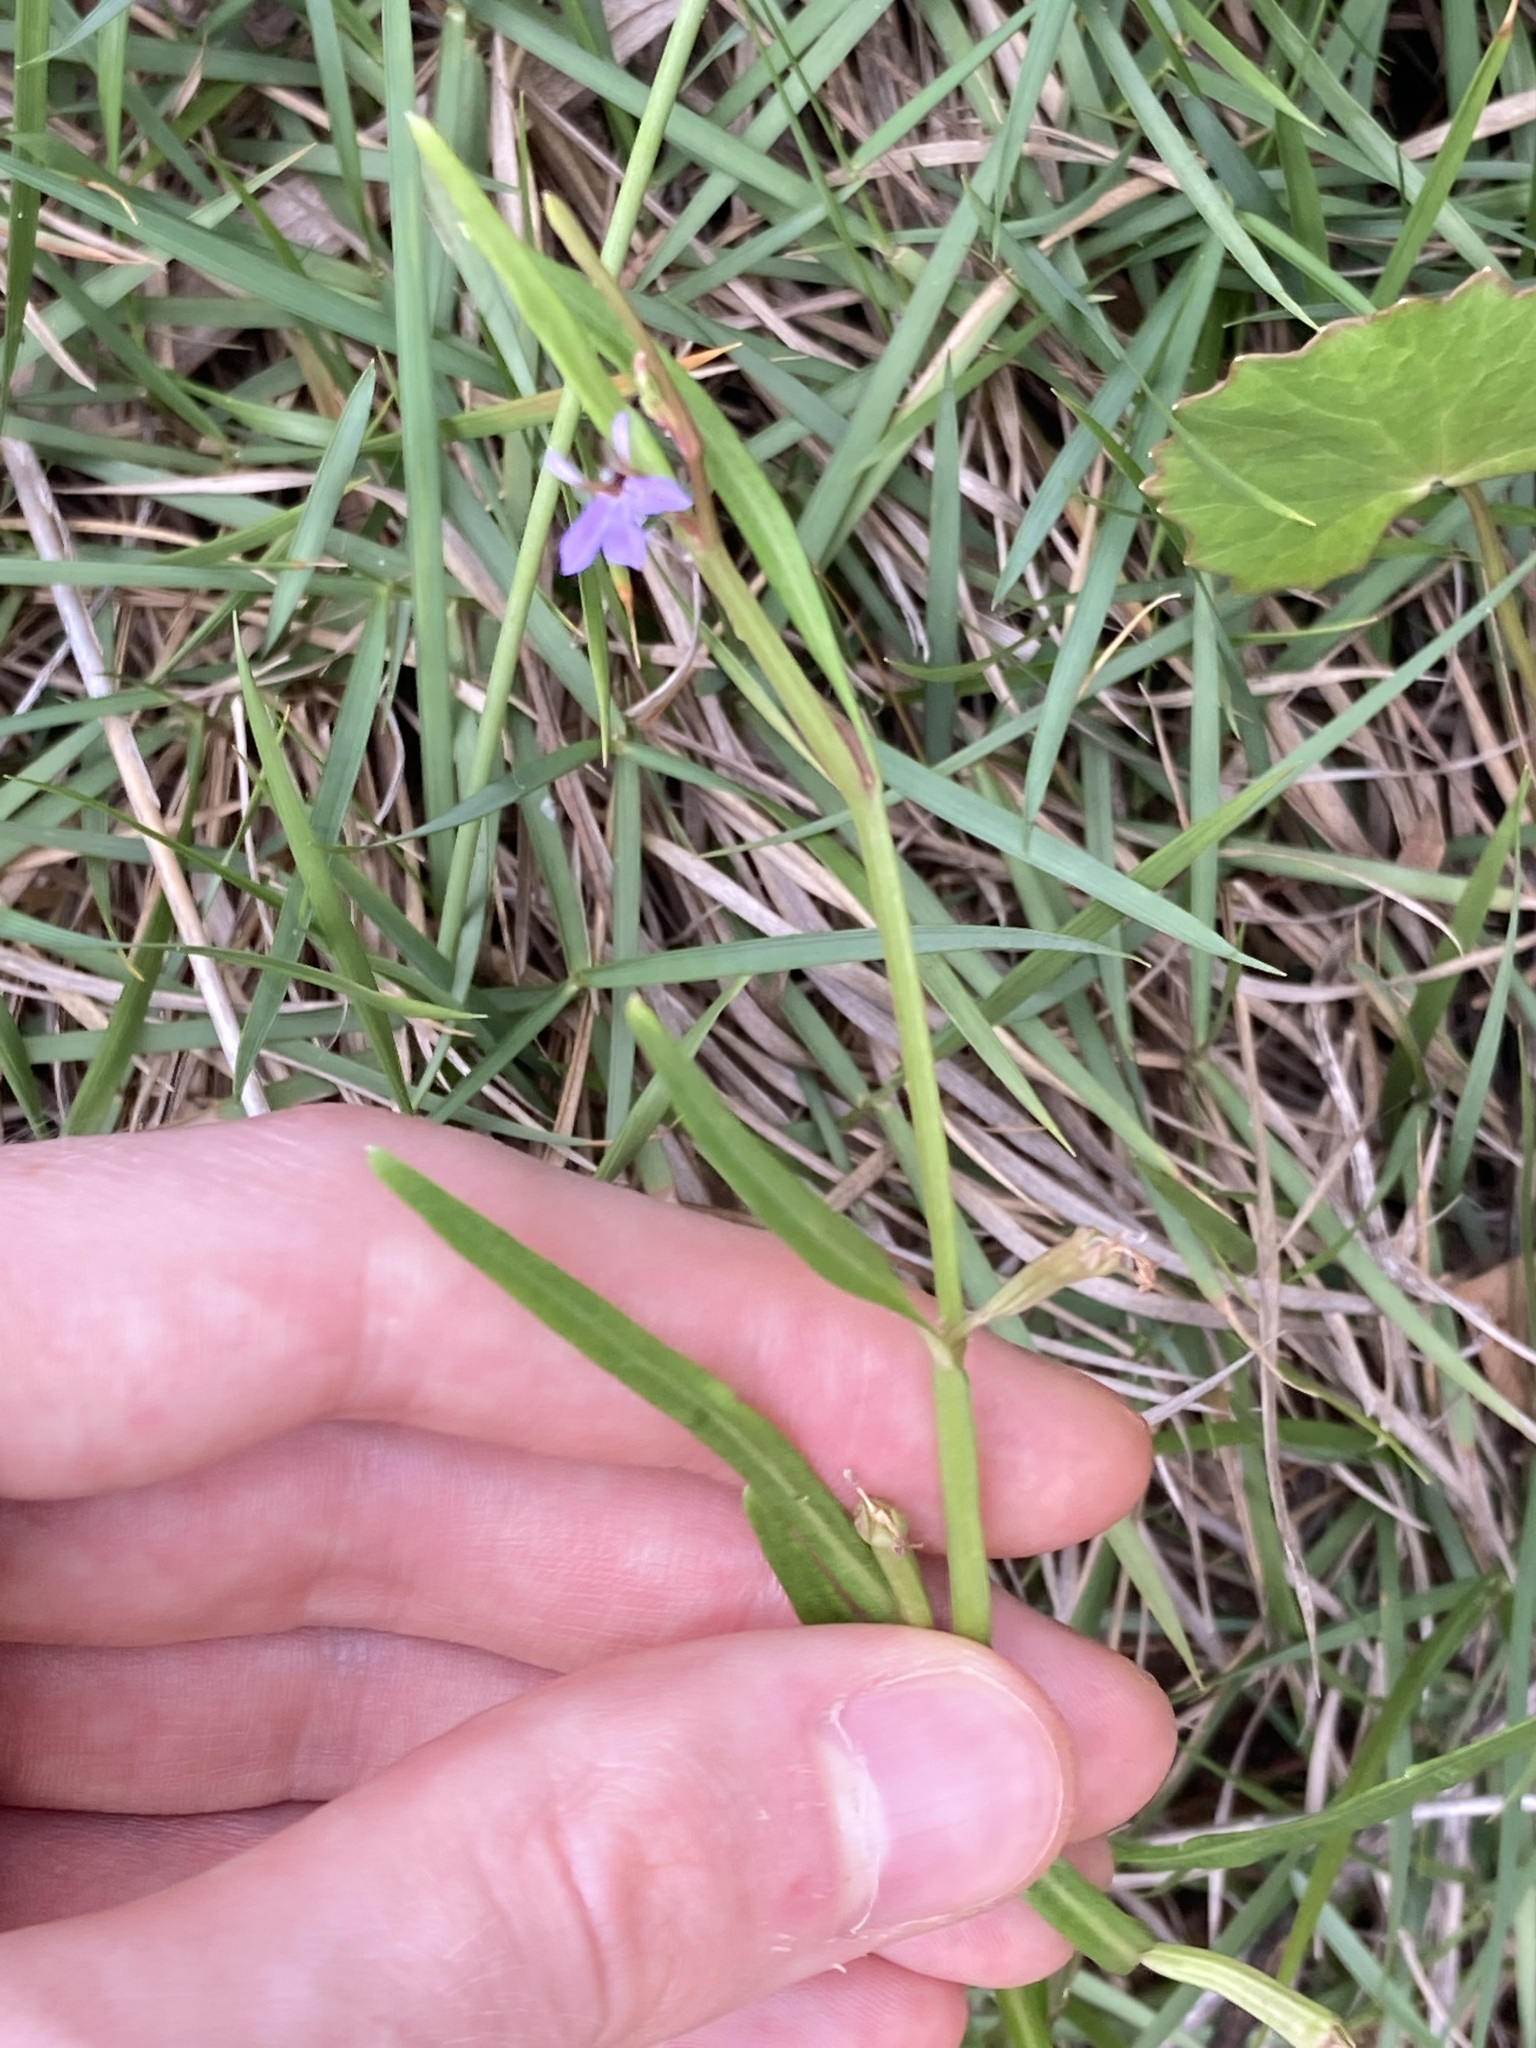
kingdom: Plantae
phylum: Tracheophyta
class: Magnoliopsida
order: Asterales
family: Campanulaceae
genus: Lobelia
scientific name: Lobelia anceps
